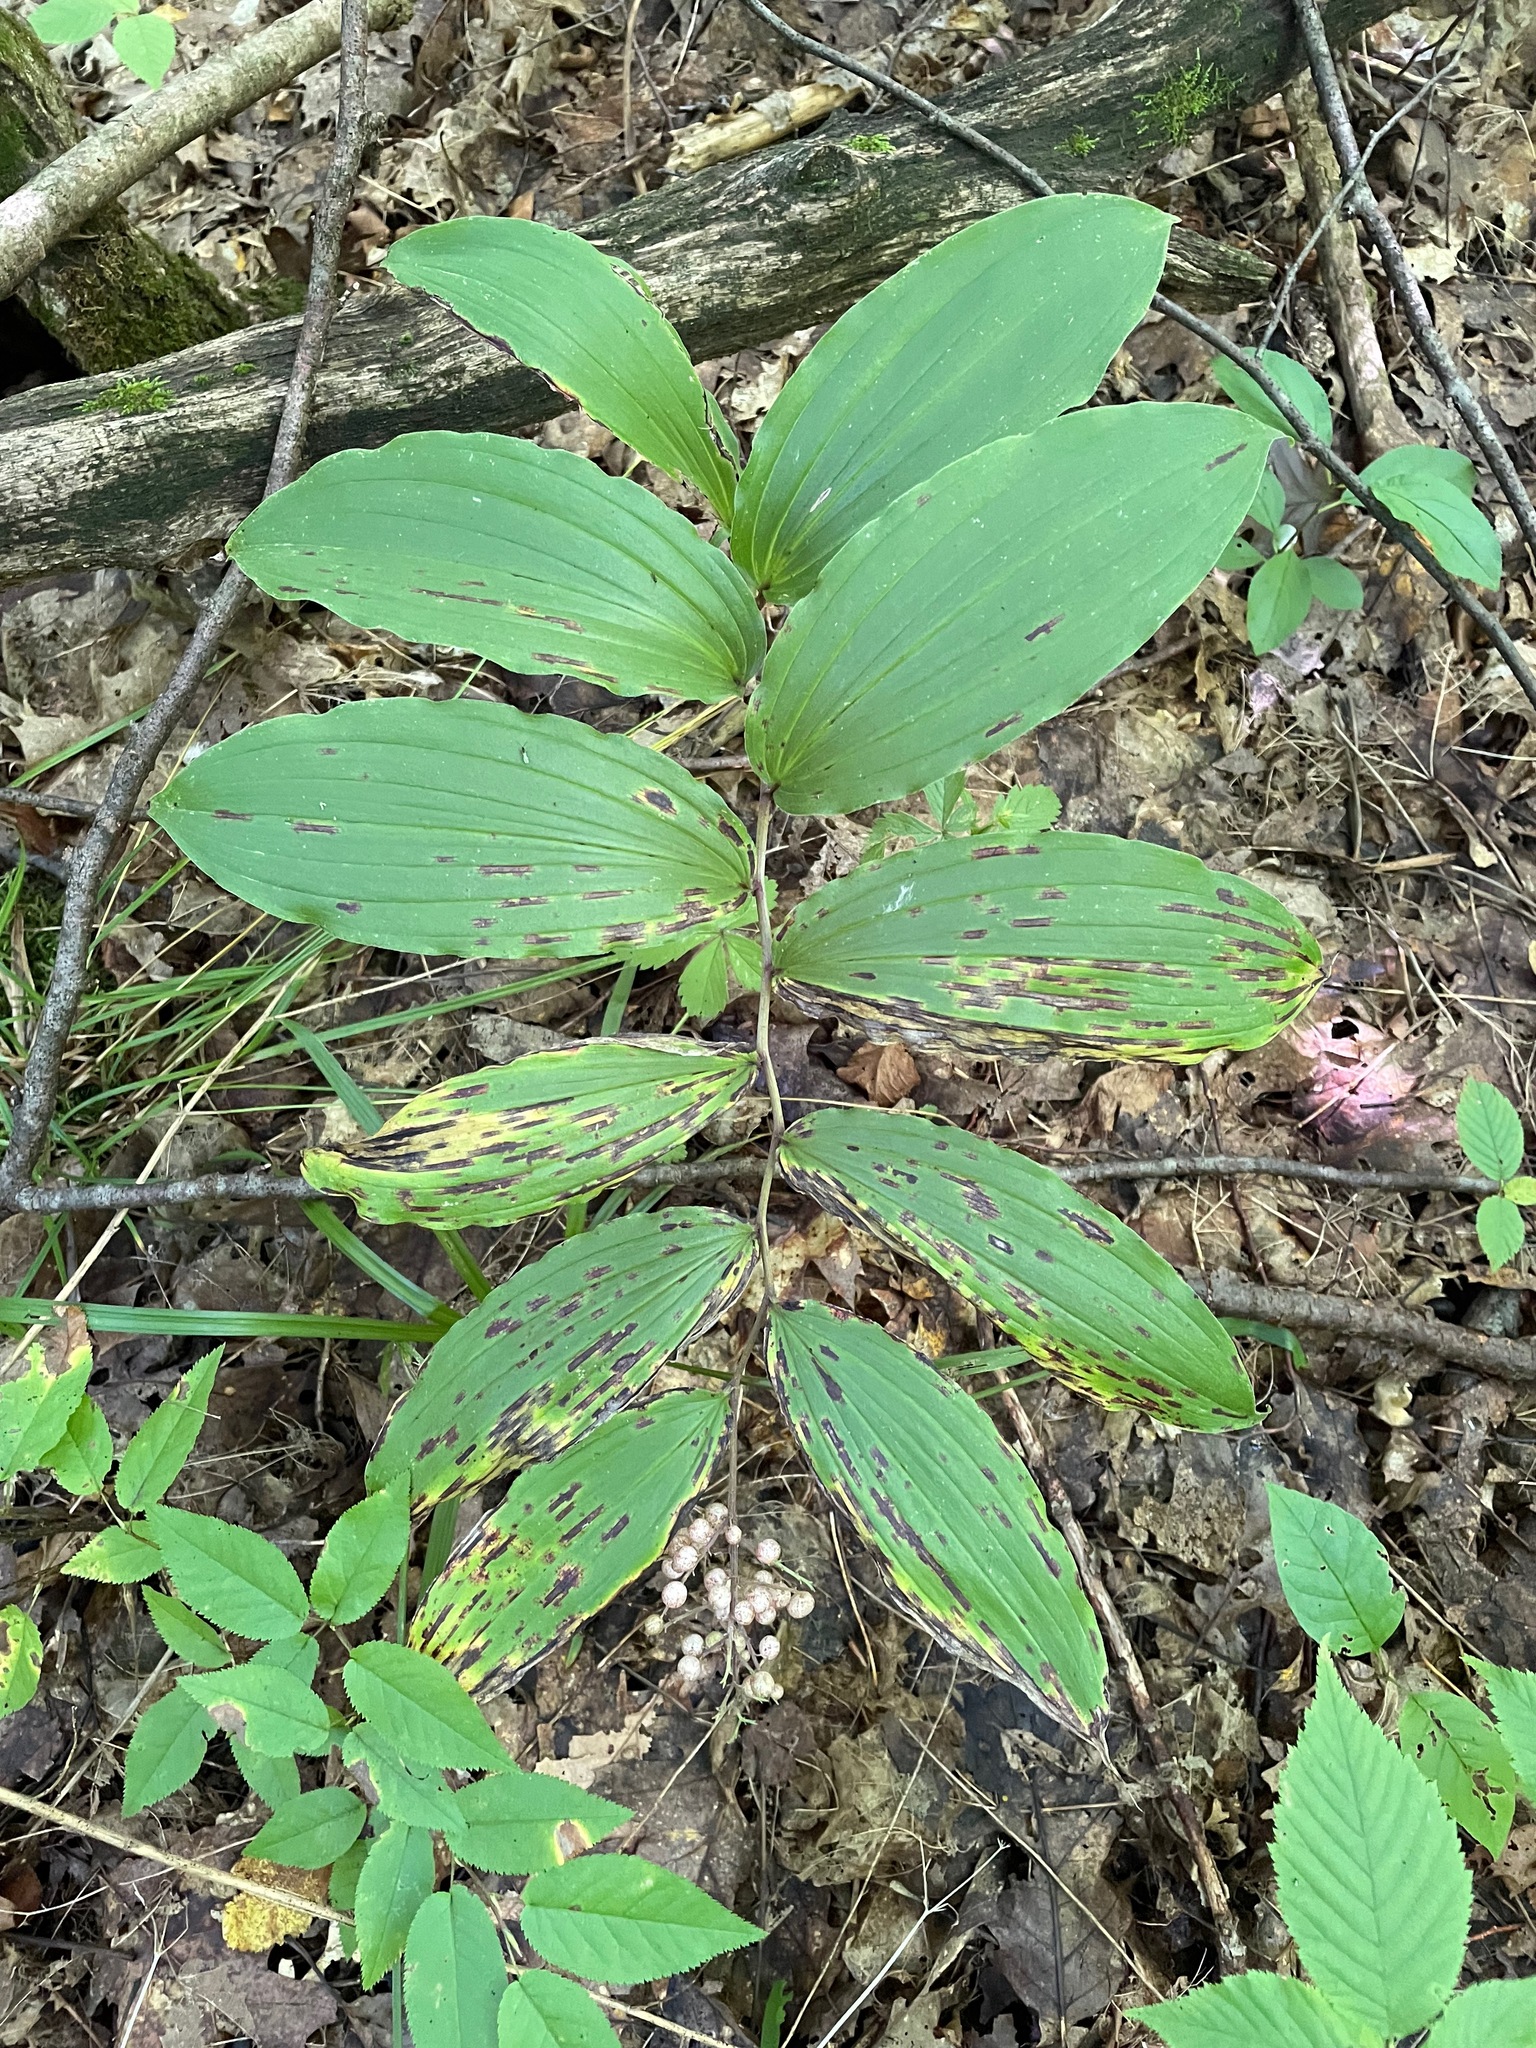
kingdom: Plantae
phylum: Tracheophyta
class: Liliopsida
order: Asparagales
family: Asparagaceae
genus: Maianthemum
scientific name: Maianthemum racemosum
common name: False spikenard
